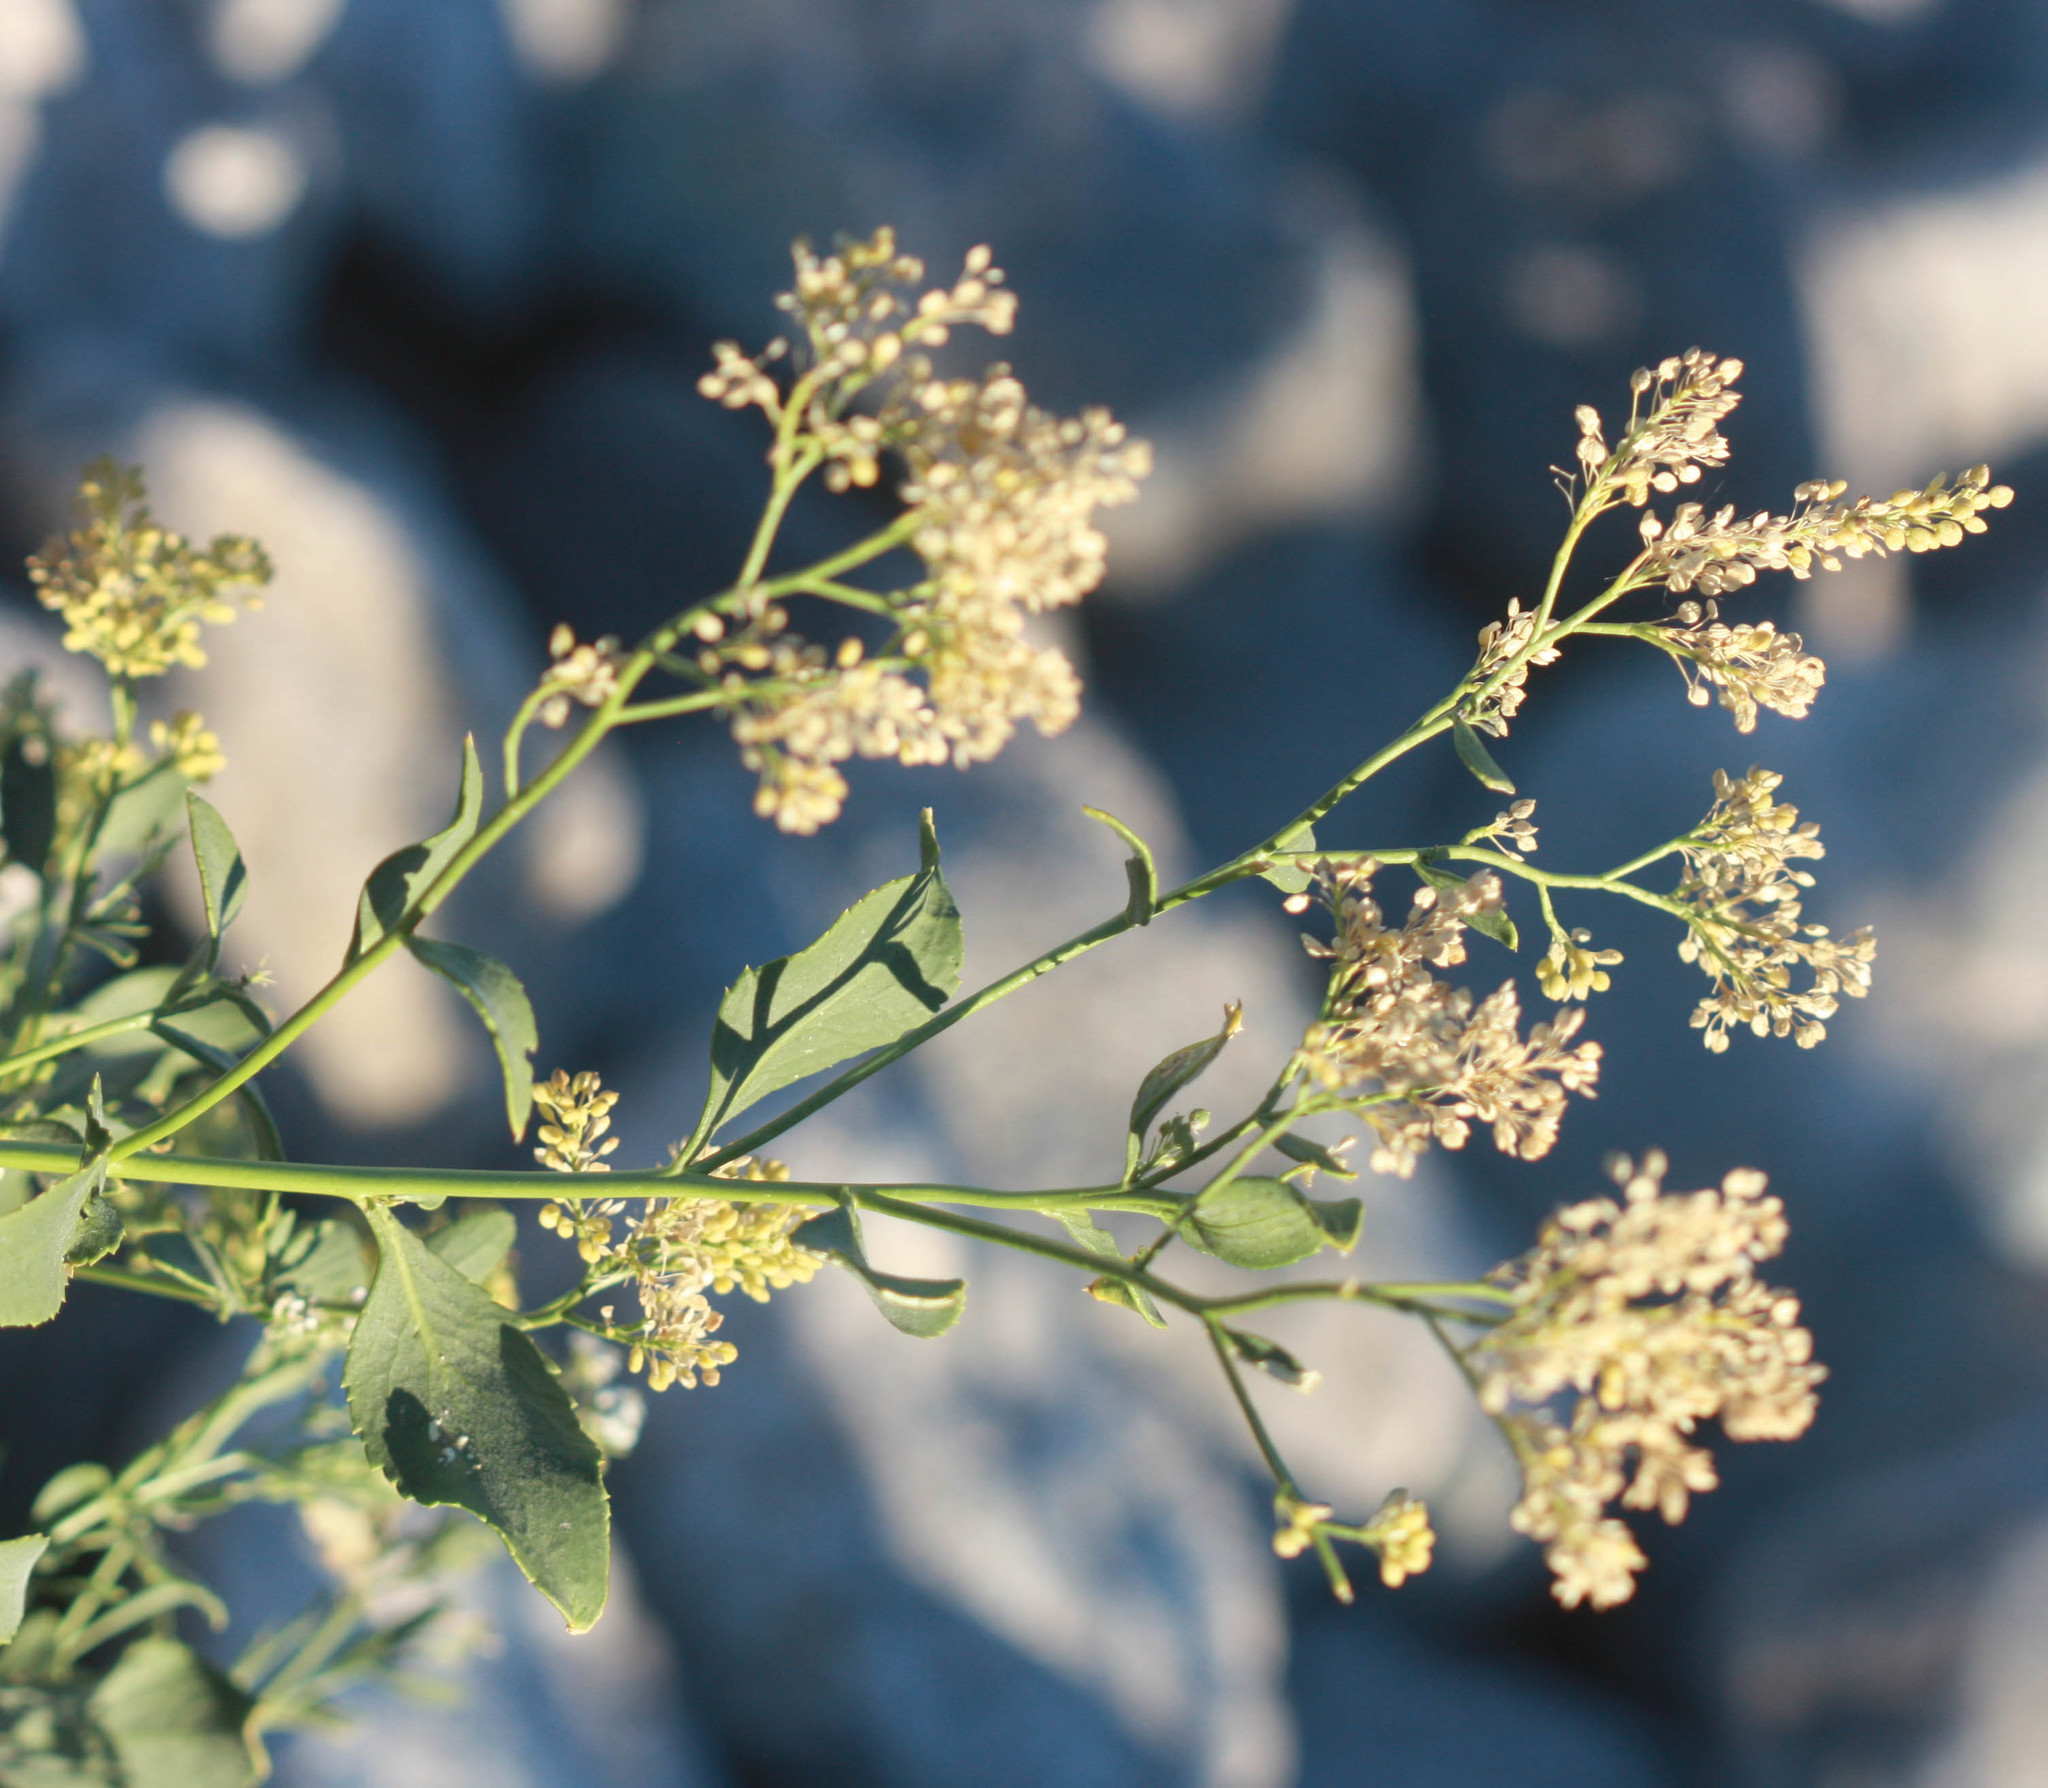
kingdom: Plantae
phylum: Tracheophyta
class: Magnoliopsida
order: Brassicales
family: Brassicaceae
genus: Lepidium
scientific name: Lepidium latifolium
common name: Dittander
